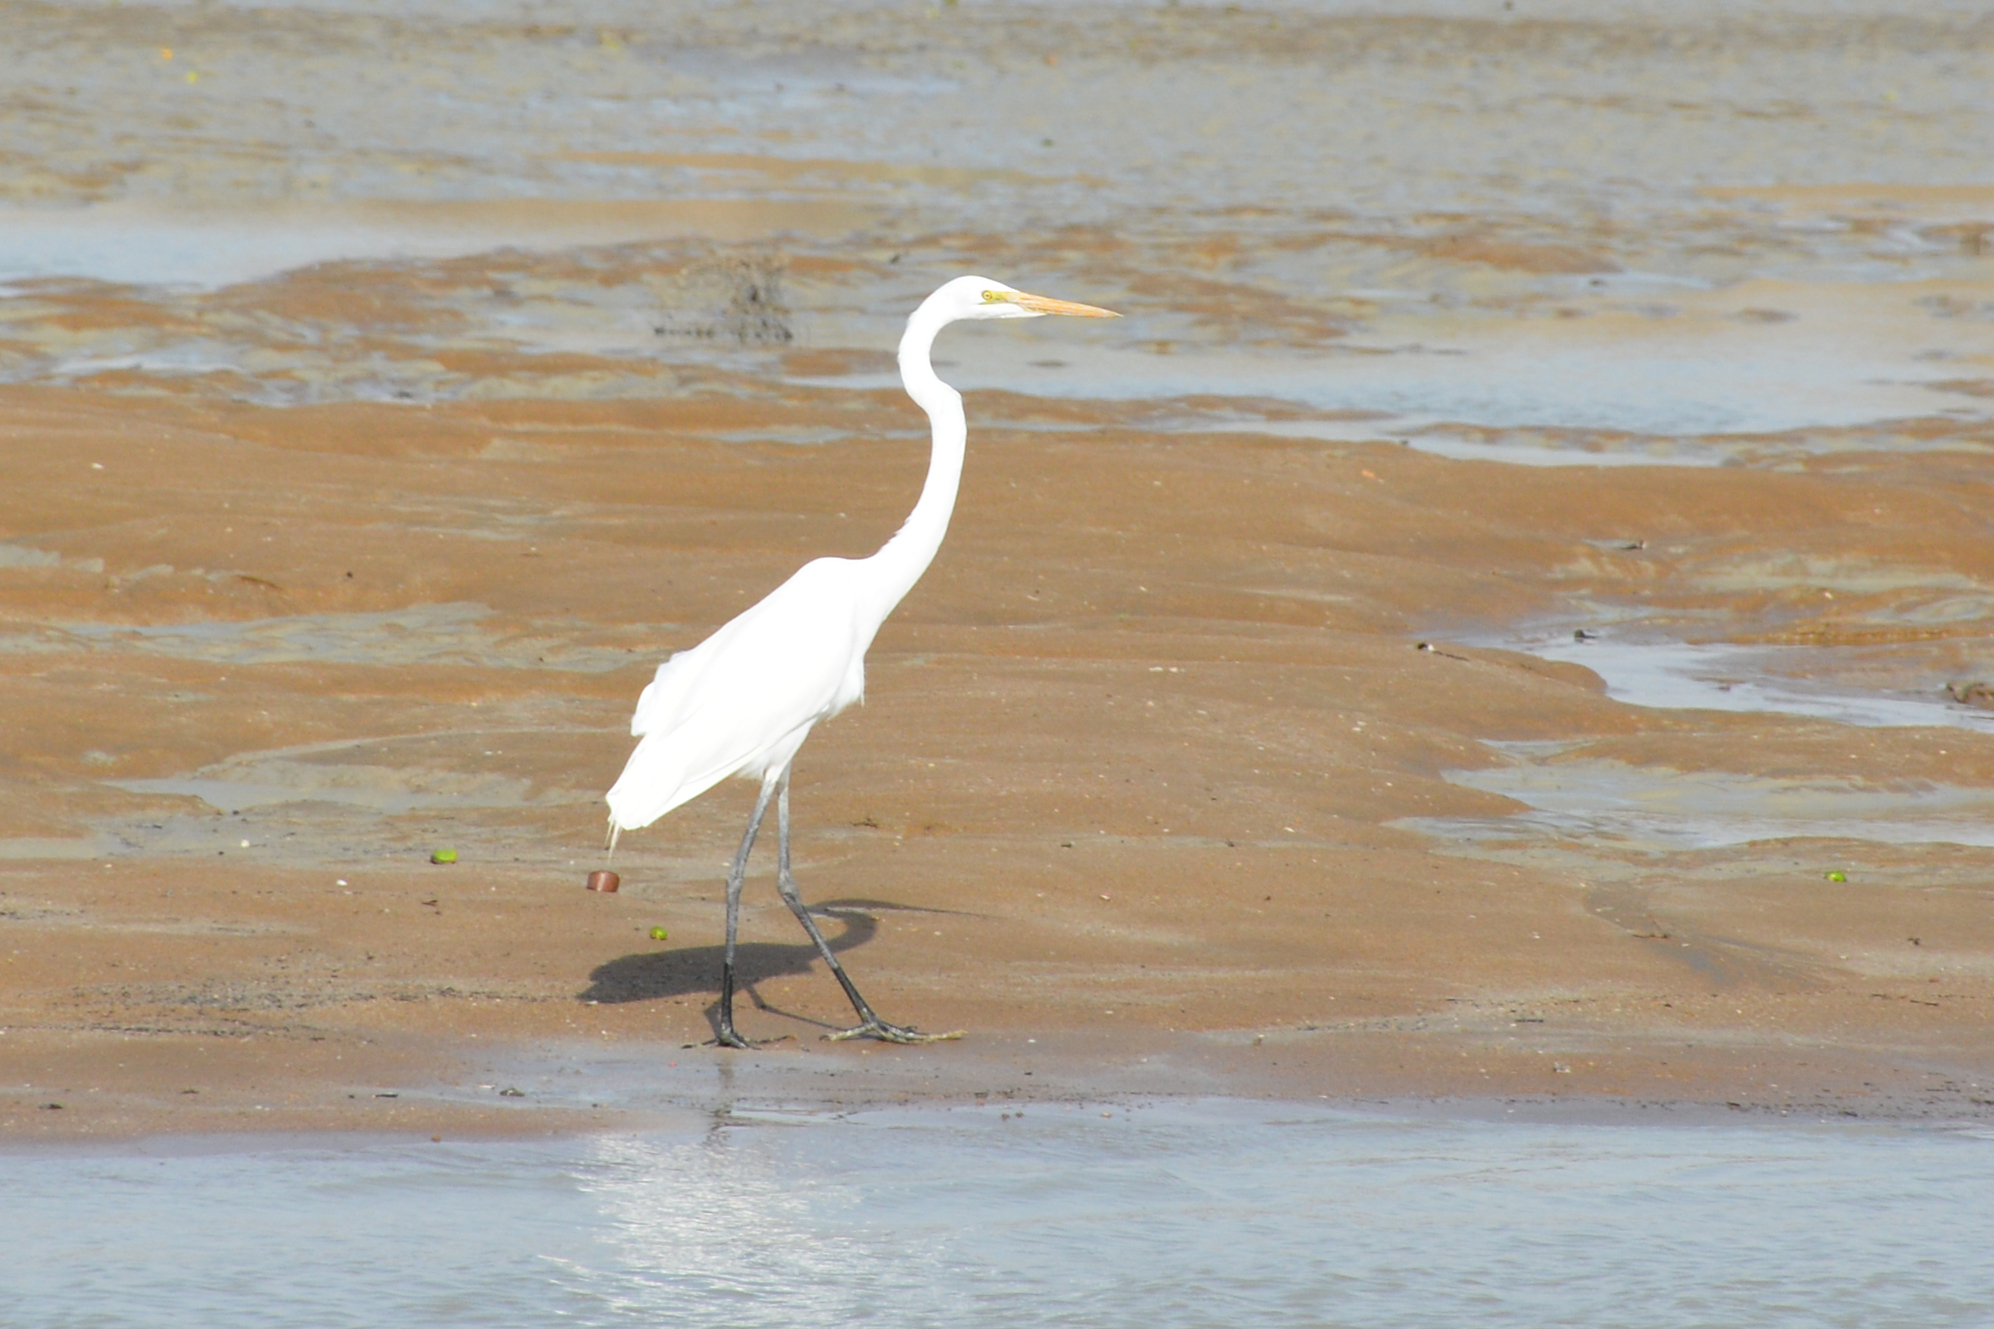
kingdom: Animalia
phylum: Chordata
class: Aves
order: Pelecaniformes
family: Ardeidae
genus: Ardea
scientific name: Ardea alba
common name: Great egret
